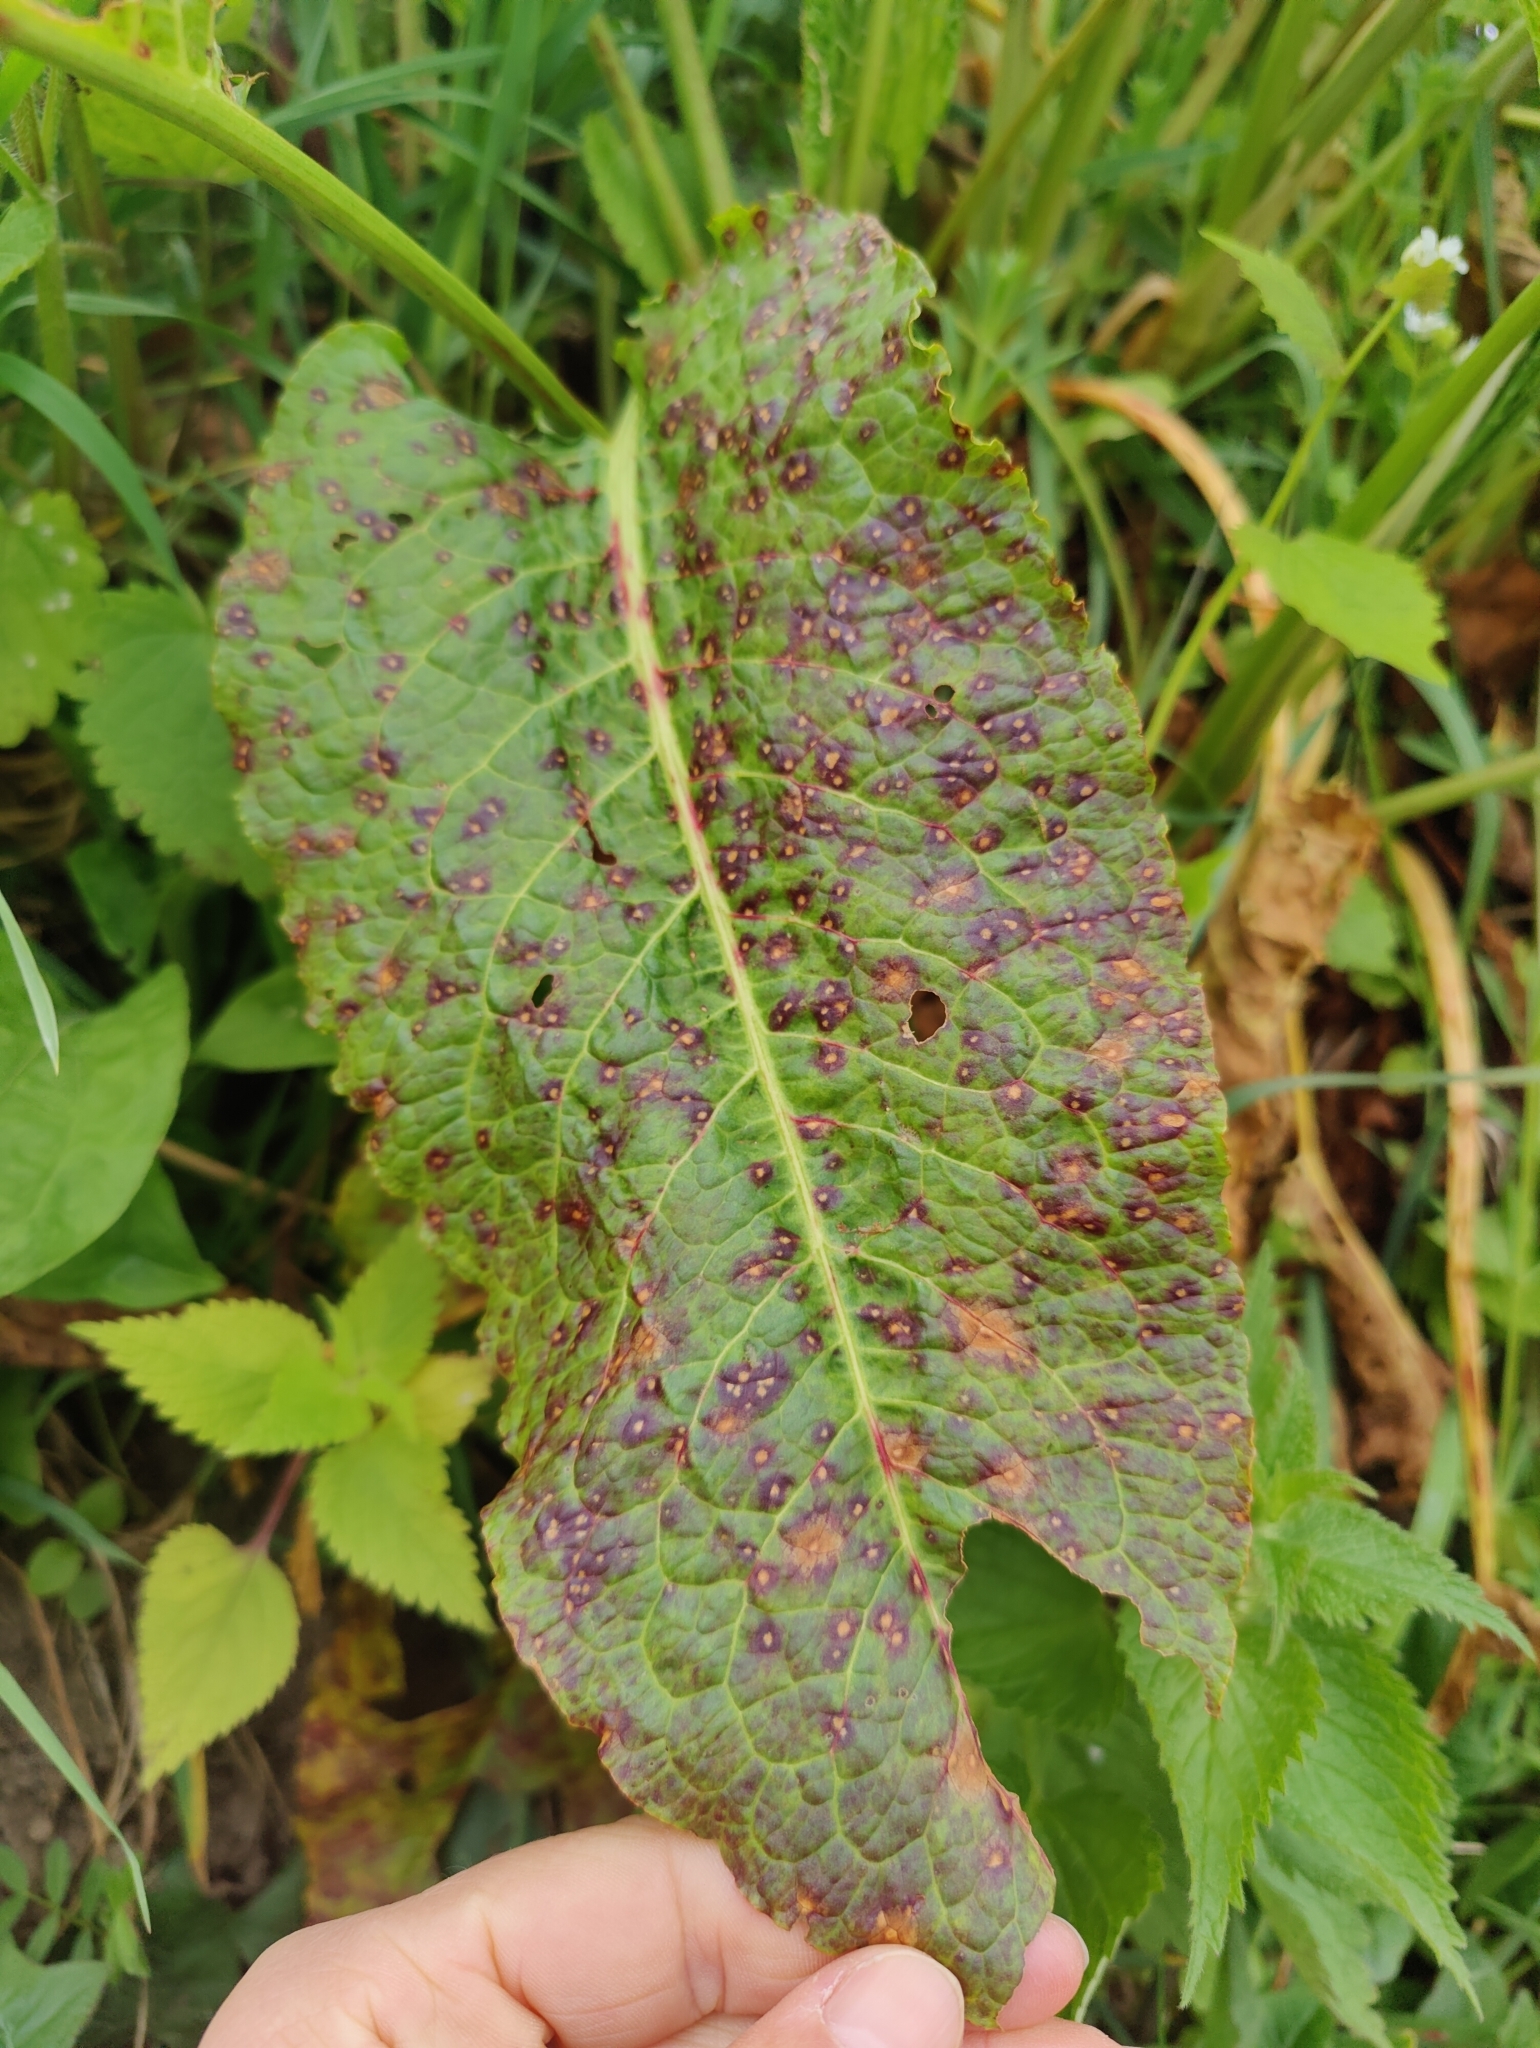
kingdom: Plantae
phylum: Tracheophyta
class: Magnoliopsida
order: Caryophyllales
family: Polygonaceae
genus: Rumex
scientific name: Rumex obtusifolius
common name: Bitter dock
